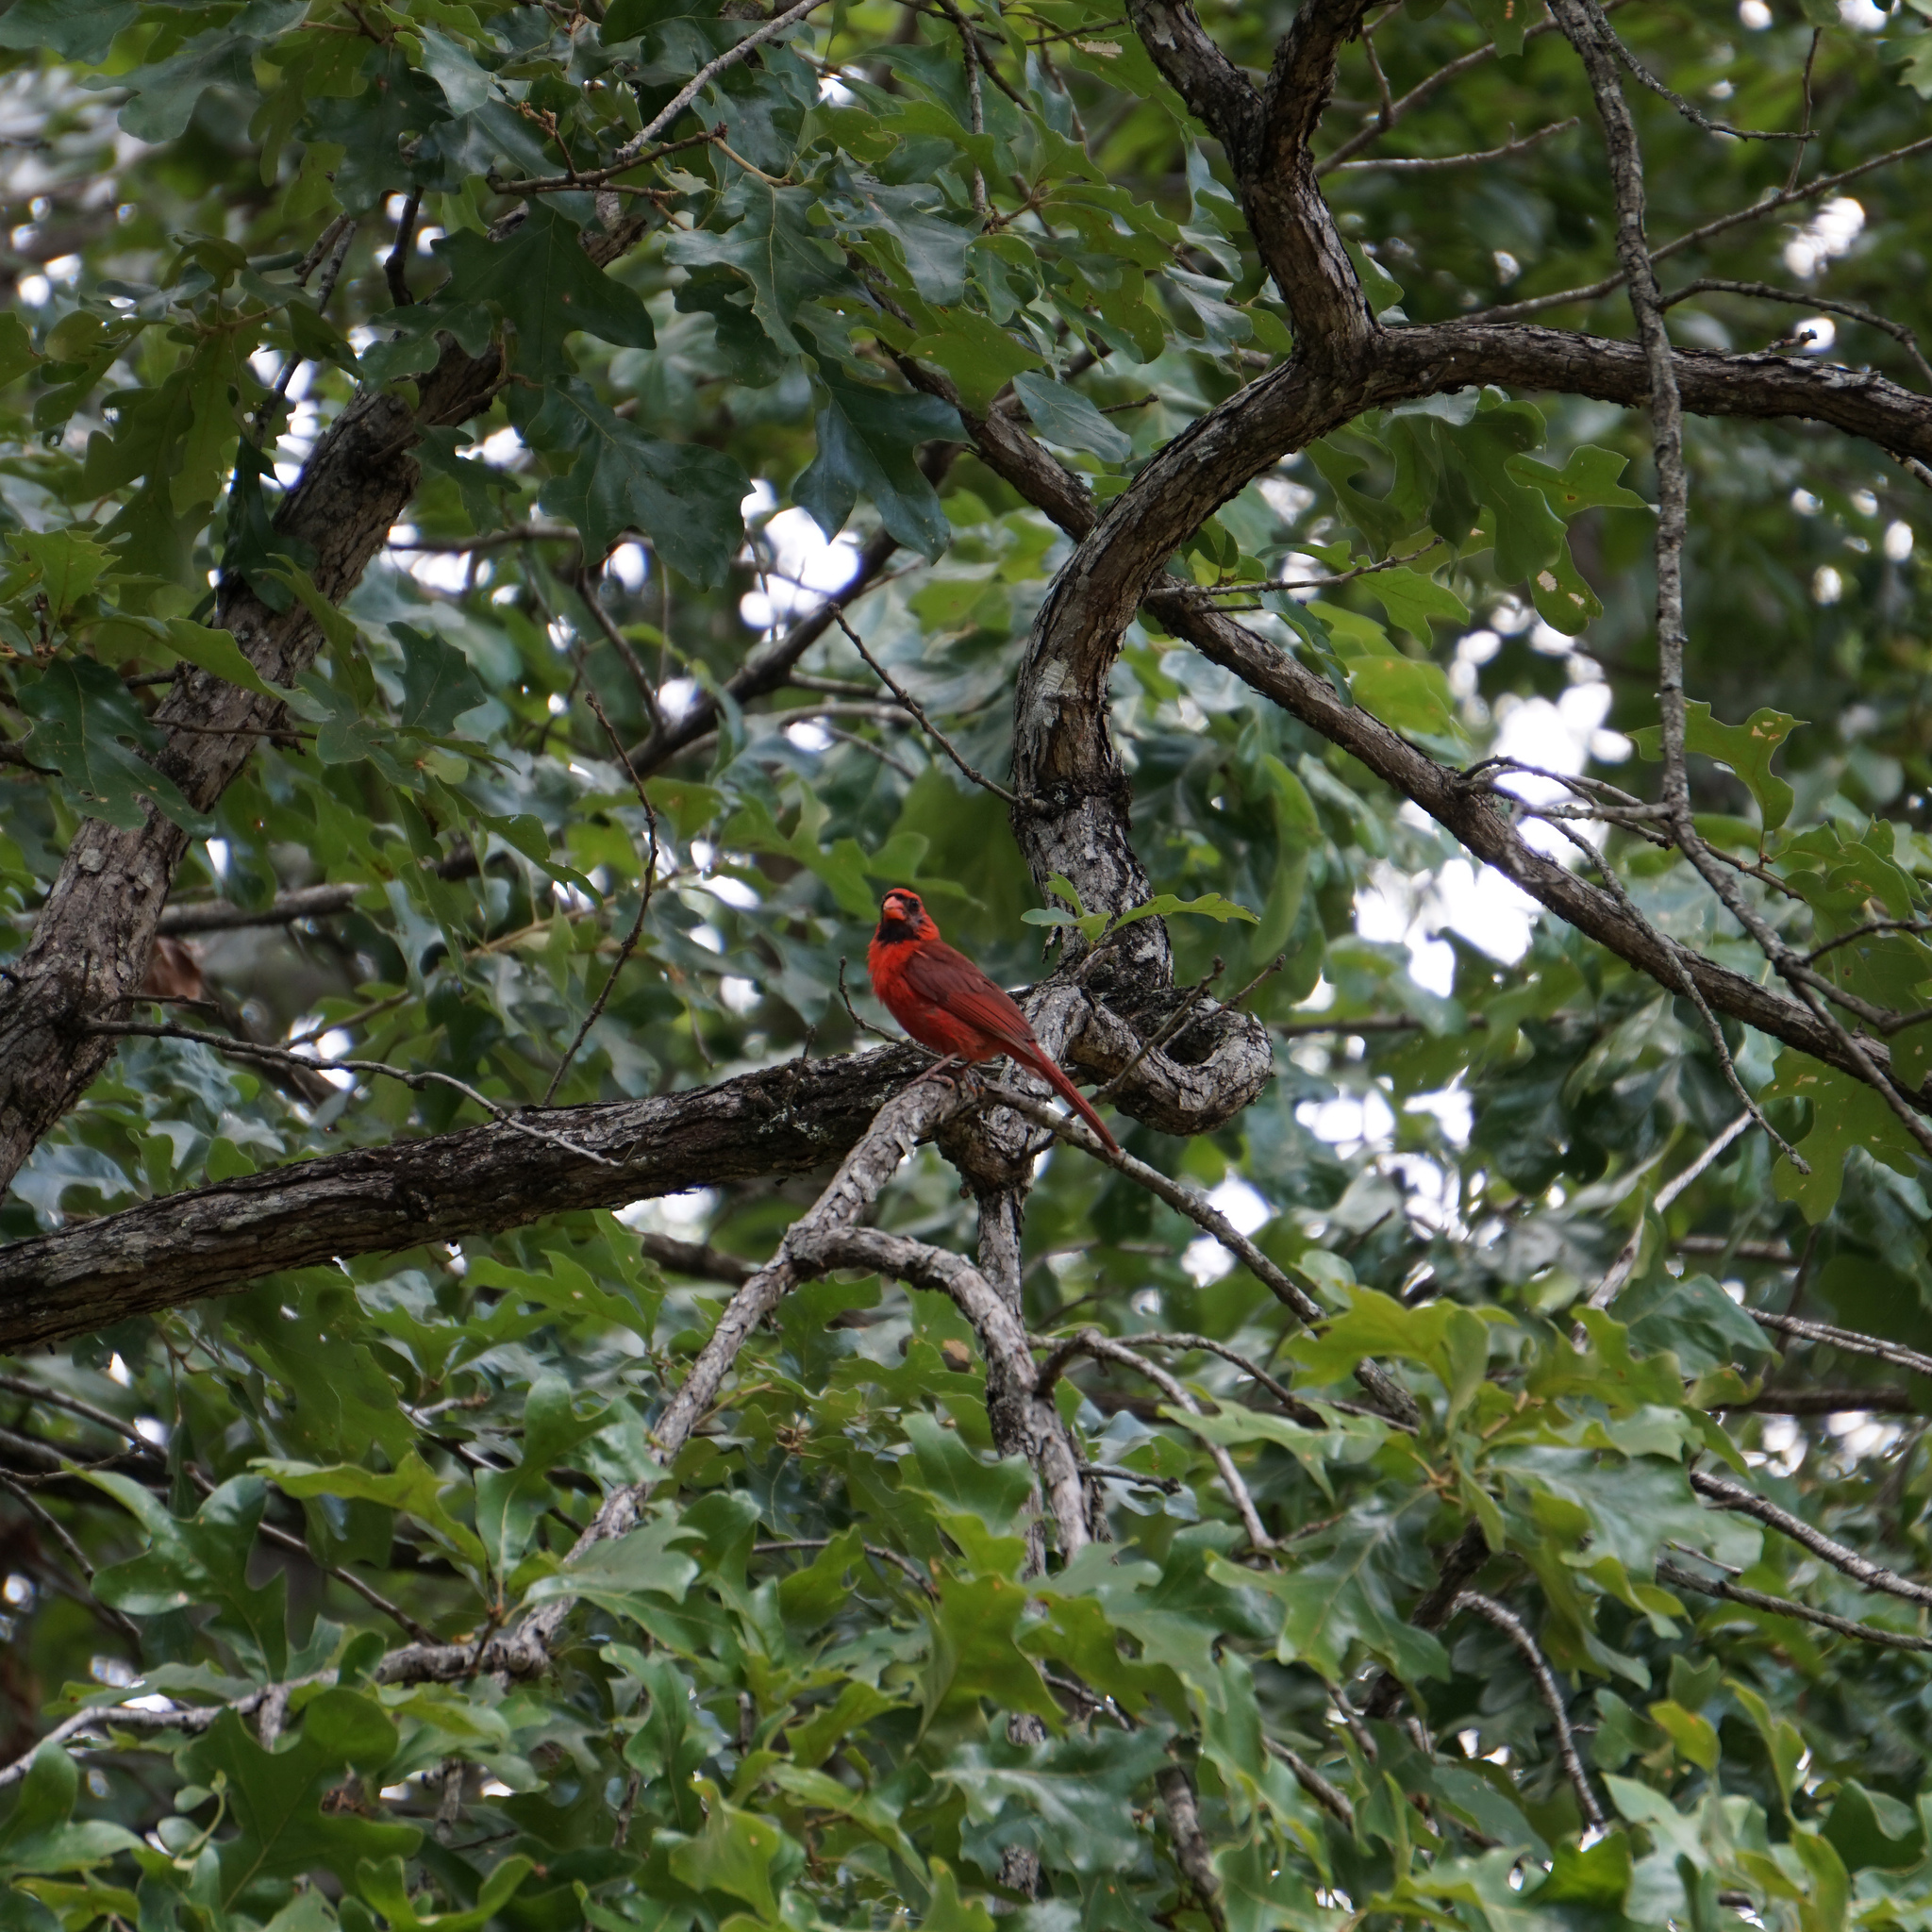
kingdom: Animalia
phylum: Chordata
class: Aves
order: Passeriformes
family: Cardinalidae
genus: Cardinalis
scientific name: Cardinalis cardinalis
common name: Northern cardinal
